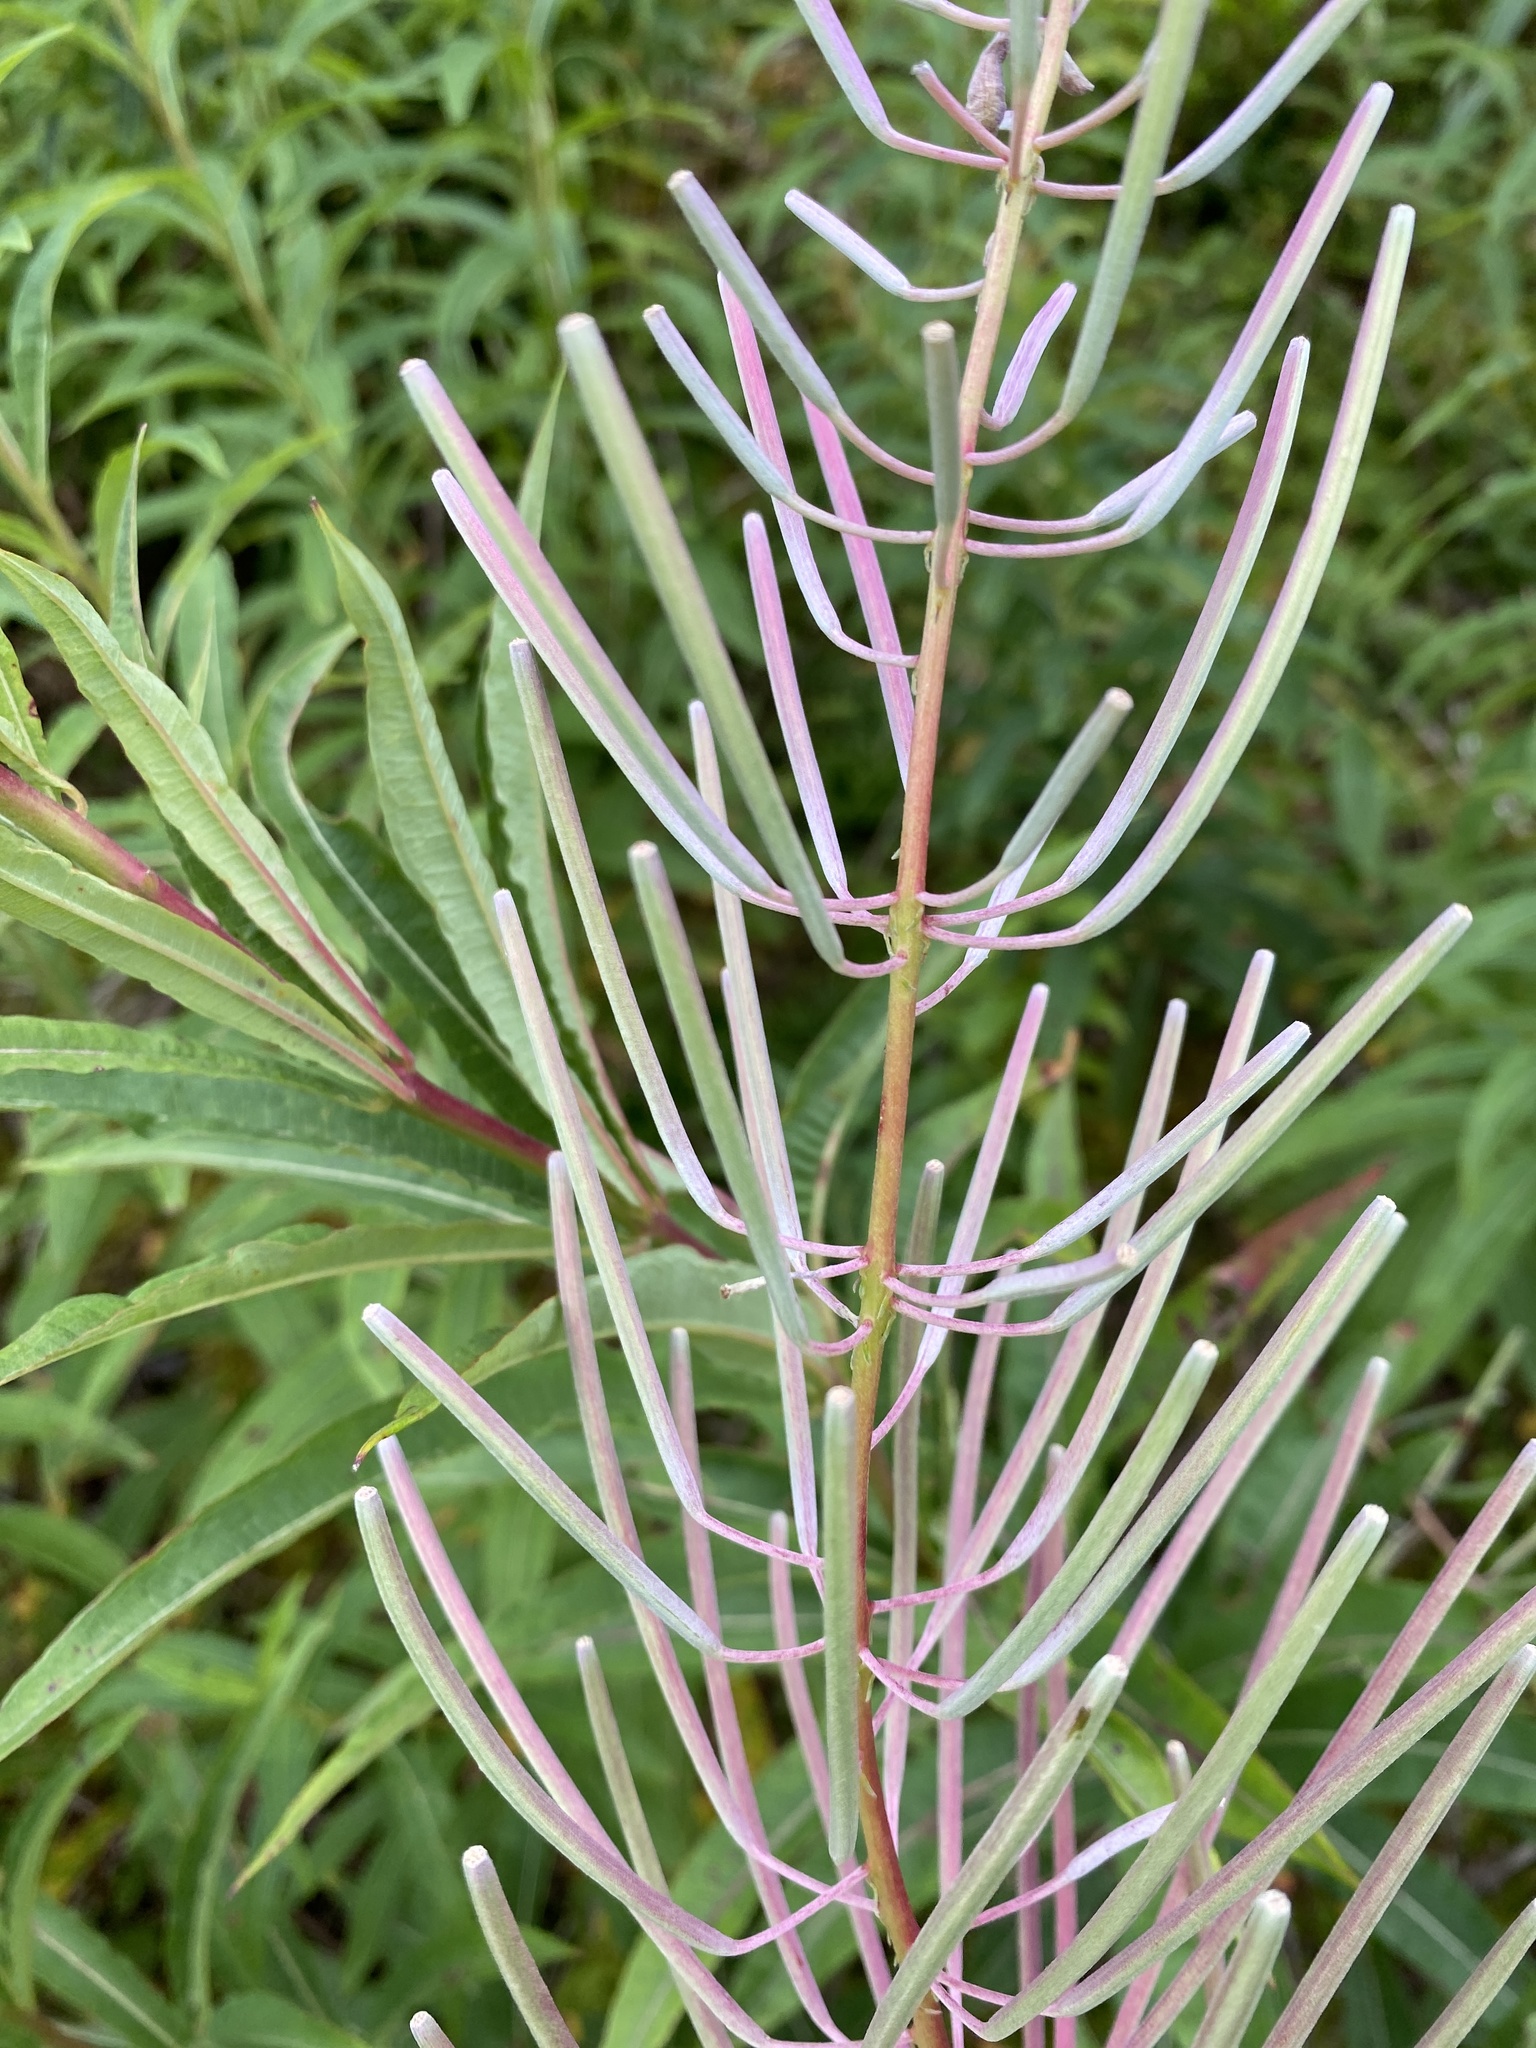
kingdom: Plantae
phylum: Tracheophyta
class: Magnoliopsida
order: Myrtales
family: Onagraceae
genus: Chamaenerion
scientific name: Chamaenerion angustifolium
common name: Fireweed
